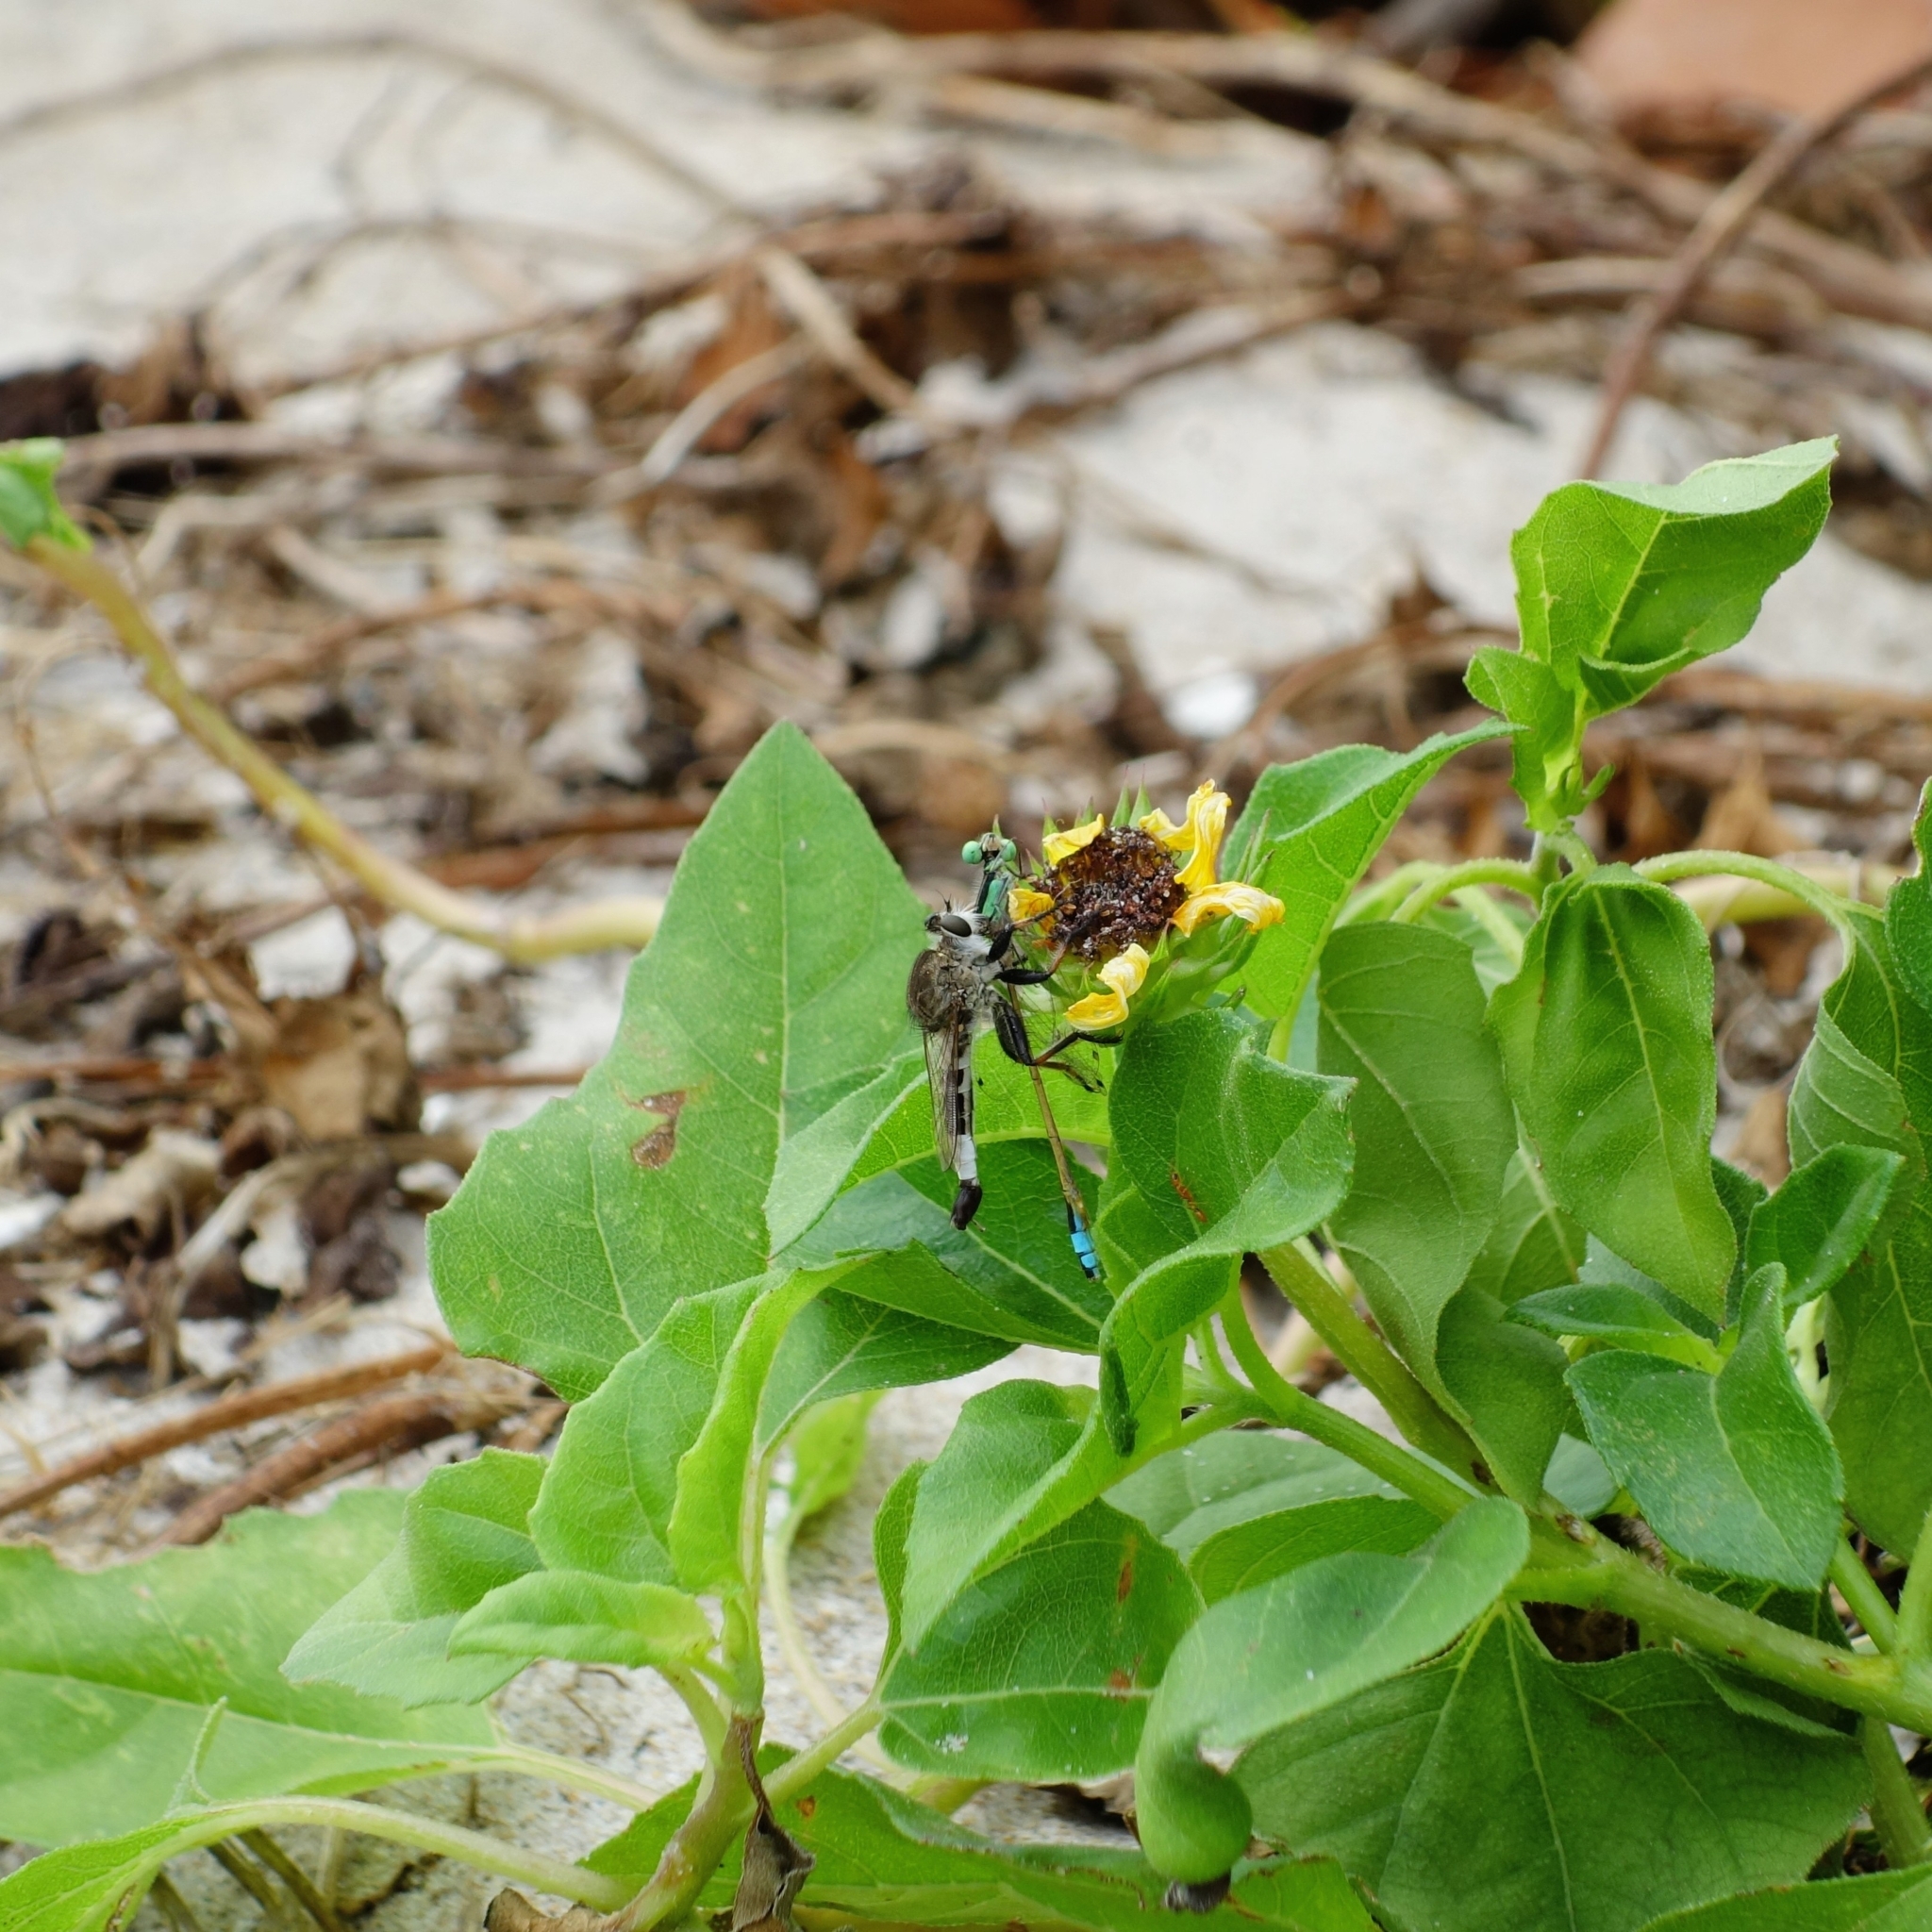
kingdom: Animalia
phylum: Arthropoda
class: Insecta
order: Diptera
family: Asilidae
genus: Efferia
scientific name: Efferia albibarbis
